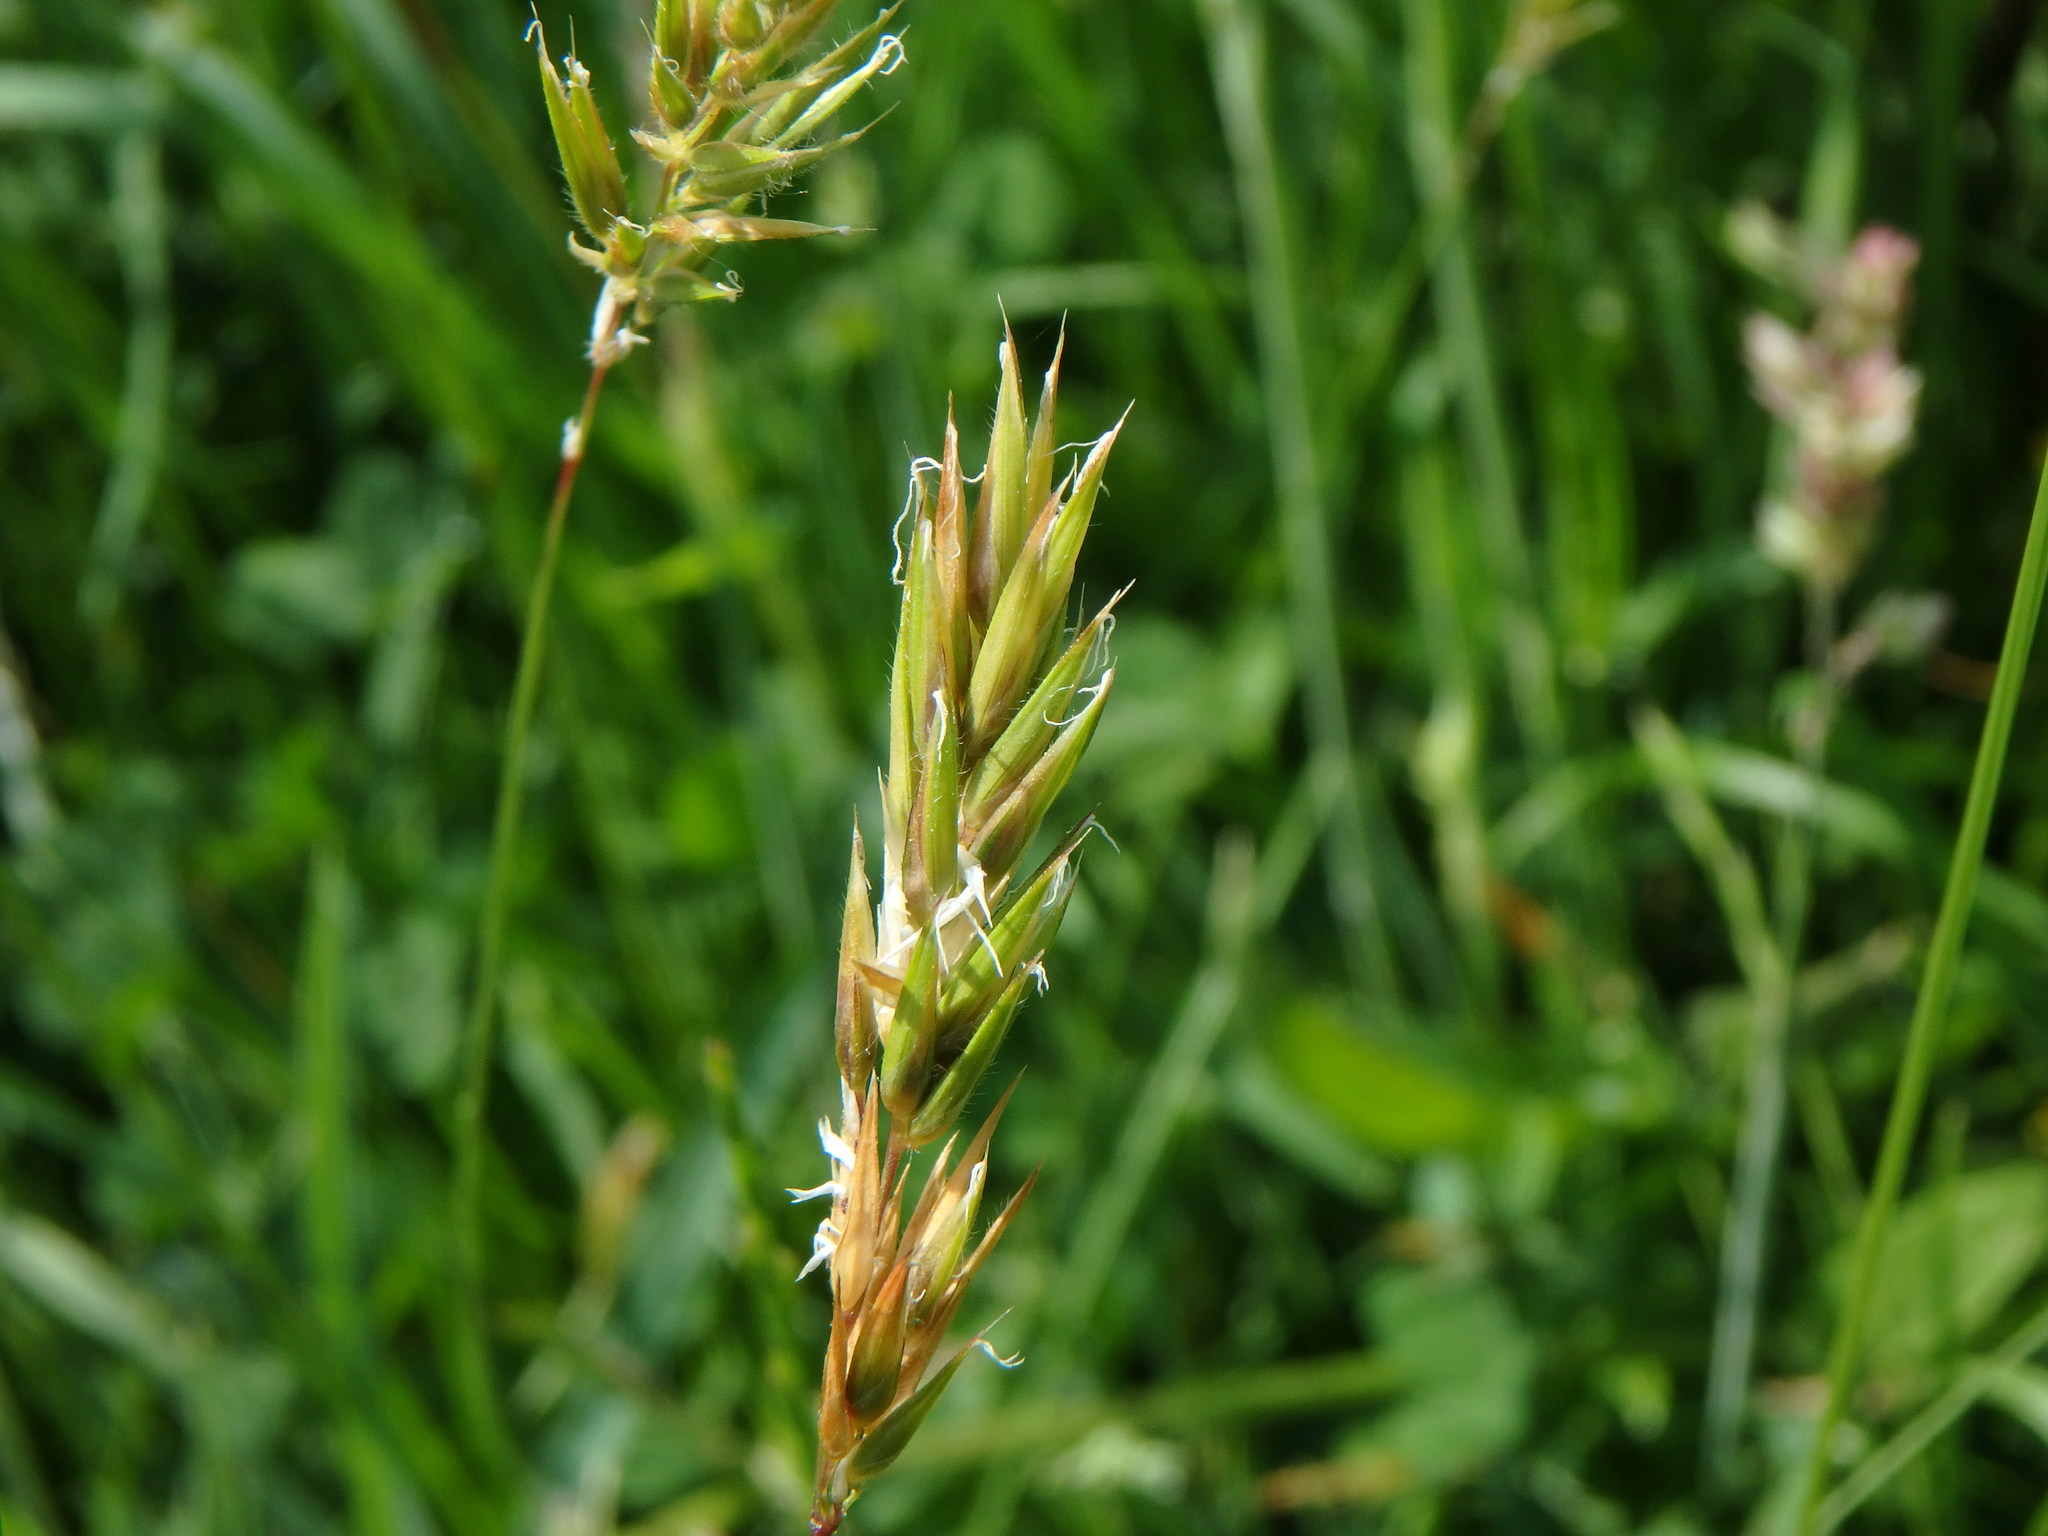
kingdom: Plantae
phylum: Tracheophyta
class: Liliopsida
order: Poales
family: Poaceae
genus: Anthoxanthum
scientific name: Anthoxanthum odoratum
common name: Sweet vernalgrass
